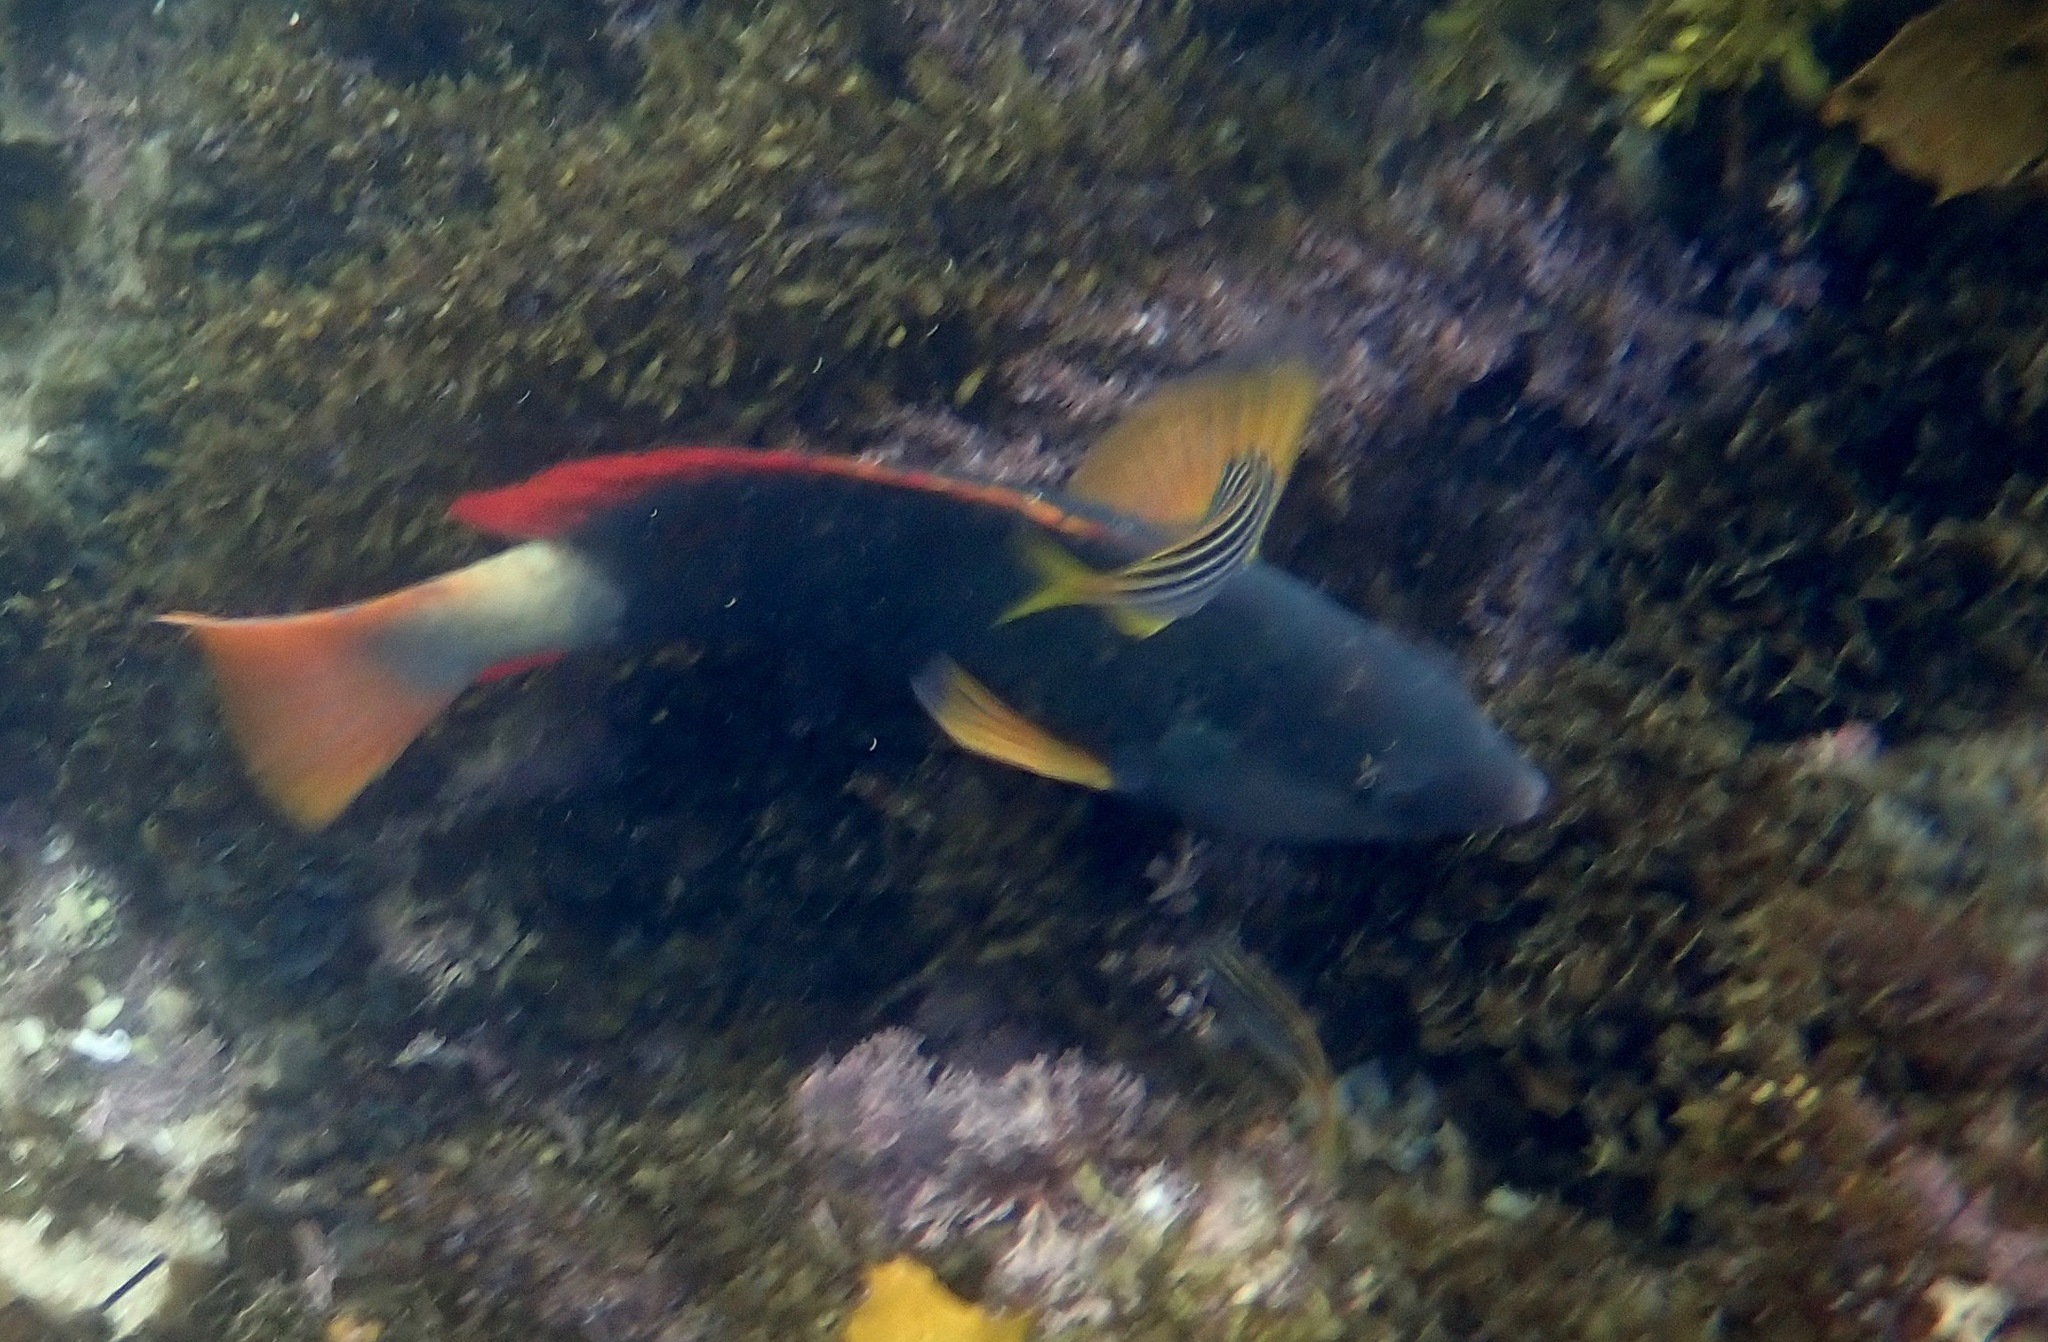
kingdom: Animalia
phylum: Chordata
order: Perciformes
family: Labridae
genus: Notolabrus
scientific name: Notolabrus gymnogenis
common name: Crimson banded wrasse
